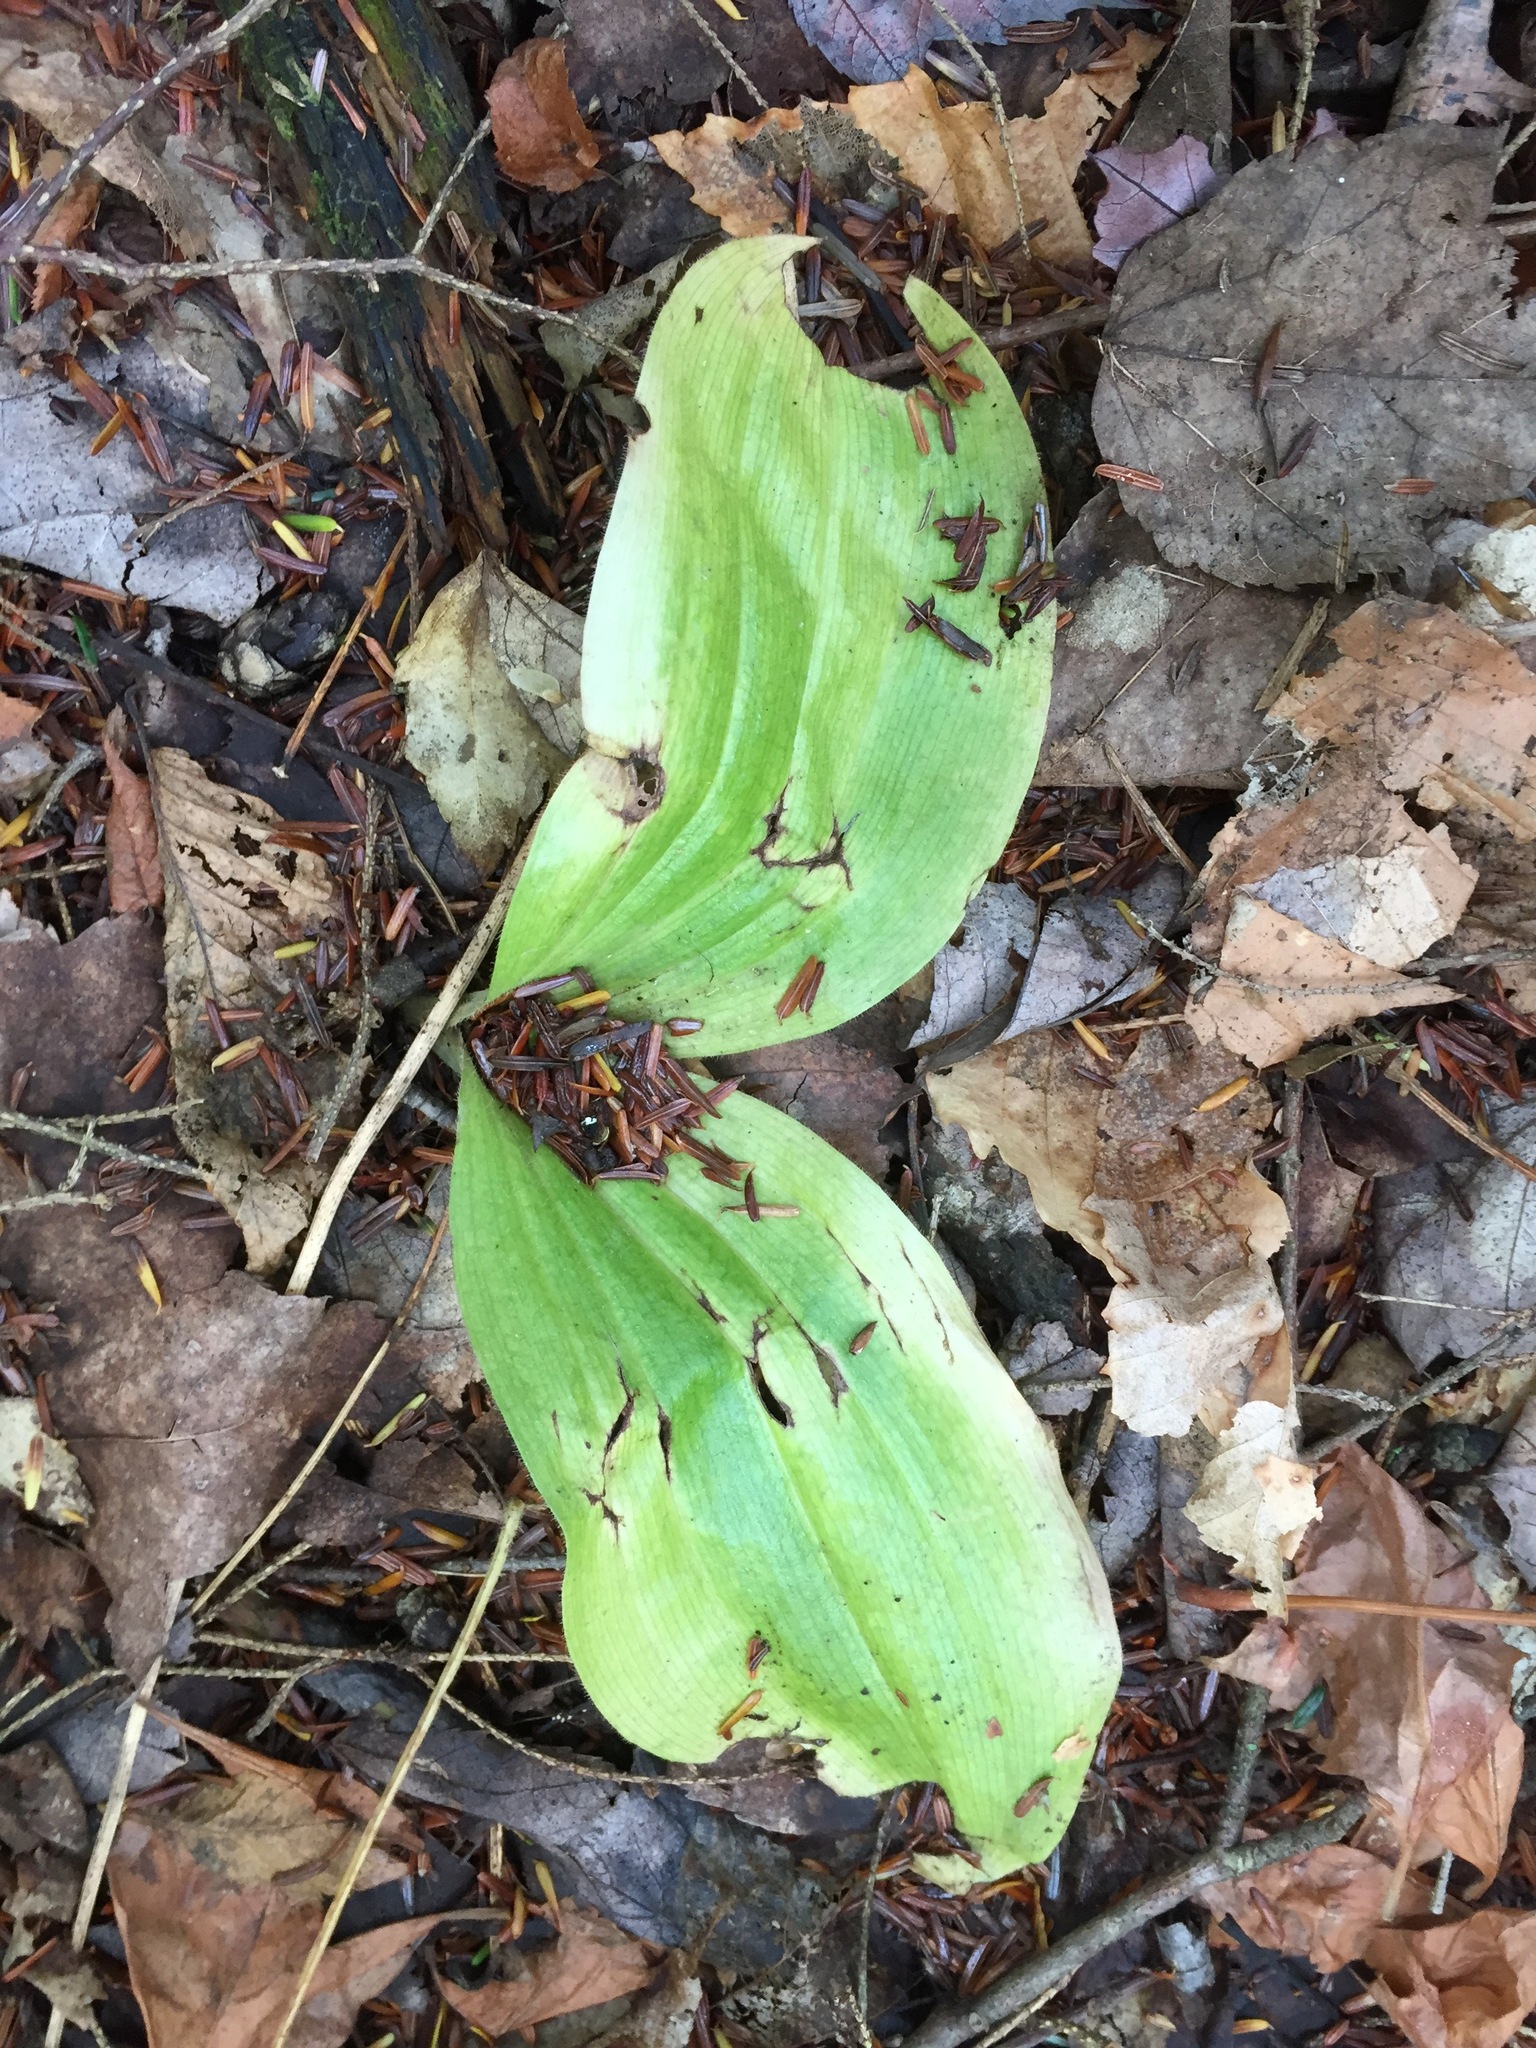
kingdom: Plantae
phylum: Tracheophyta
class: Liliopsida
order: Asparagales
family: Orchidaceae
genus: Cypripedium
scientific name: Cypripedium acaule
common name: Pink lady's-slipper
